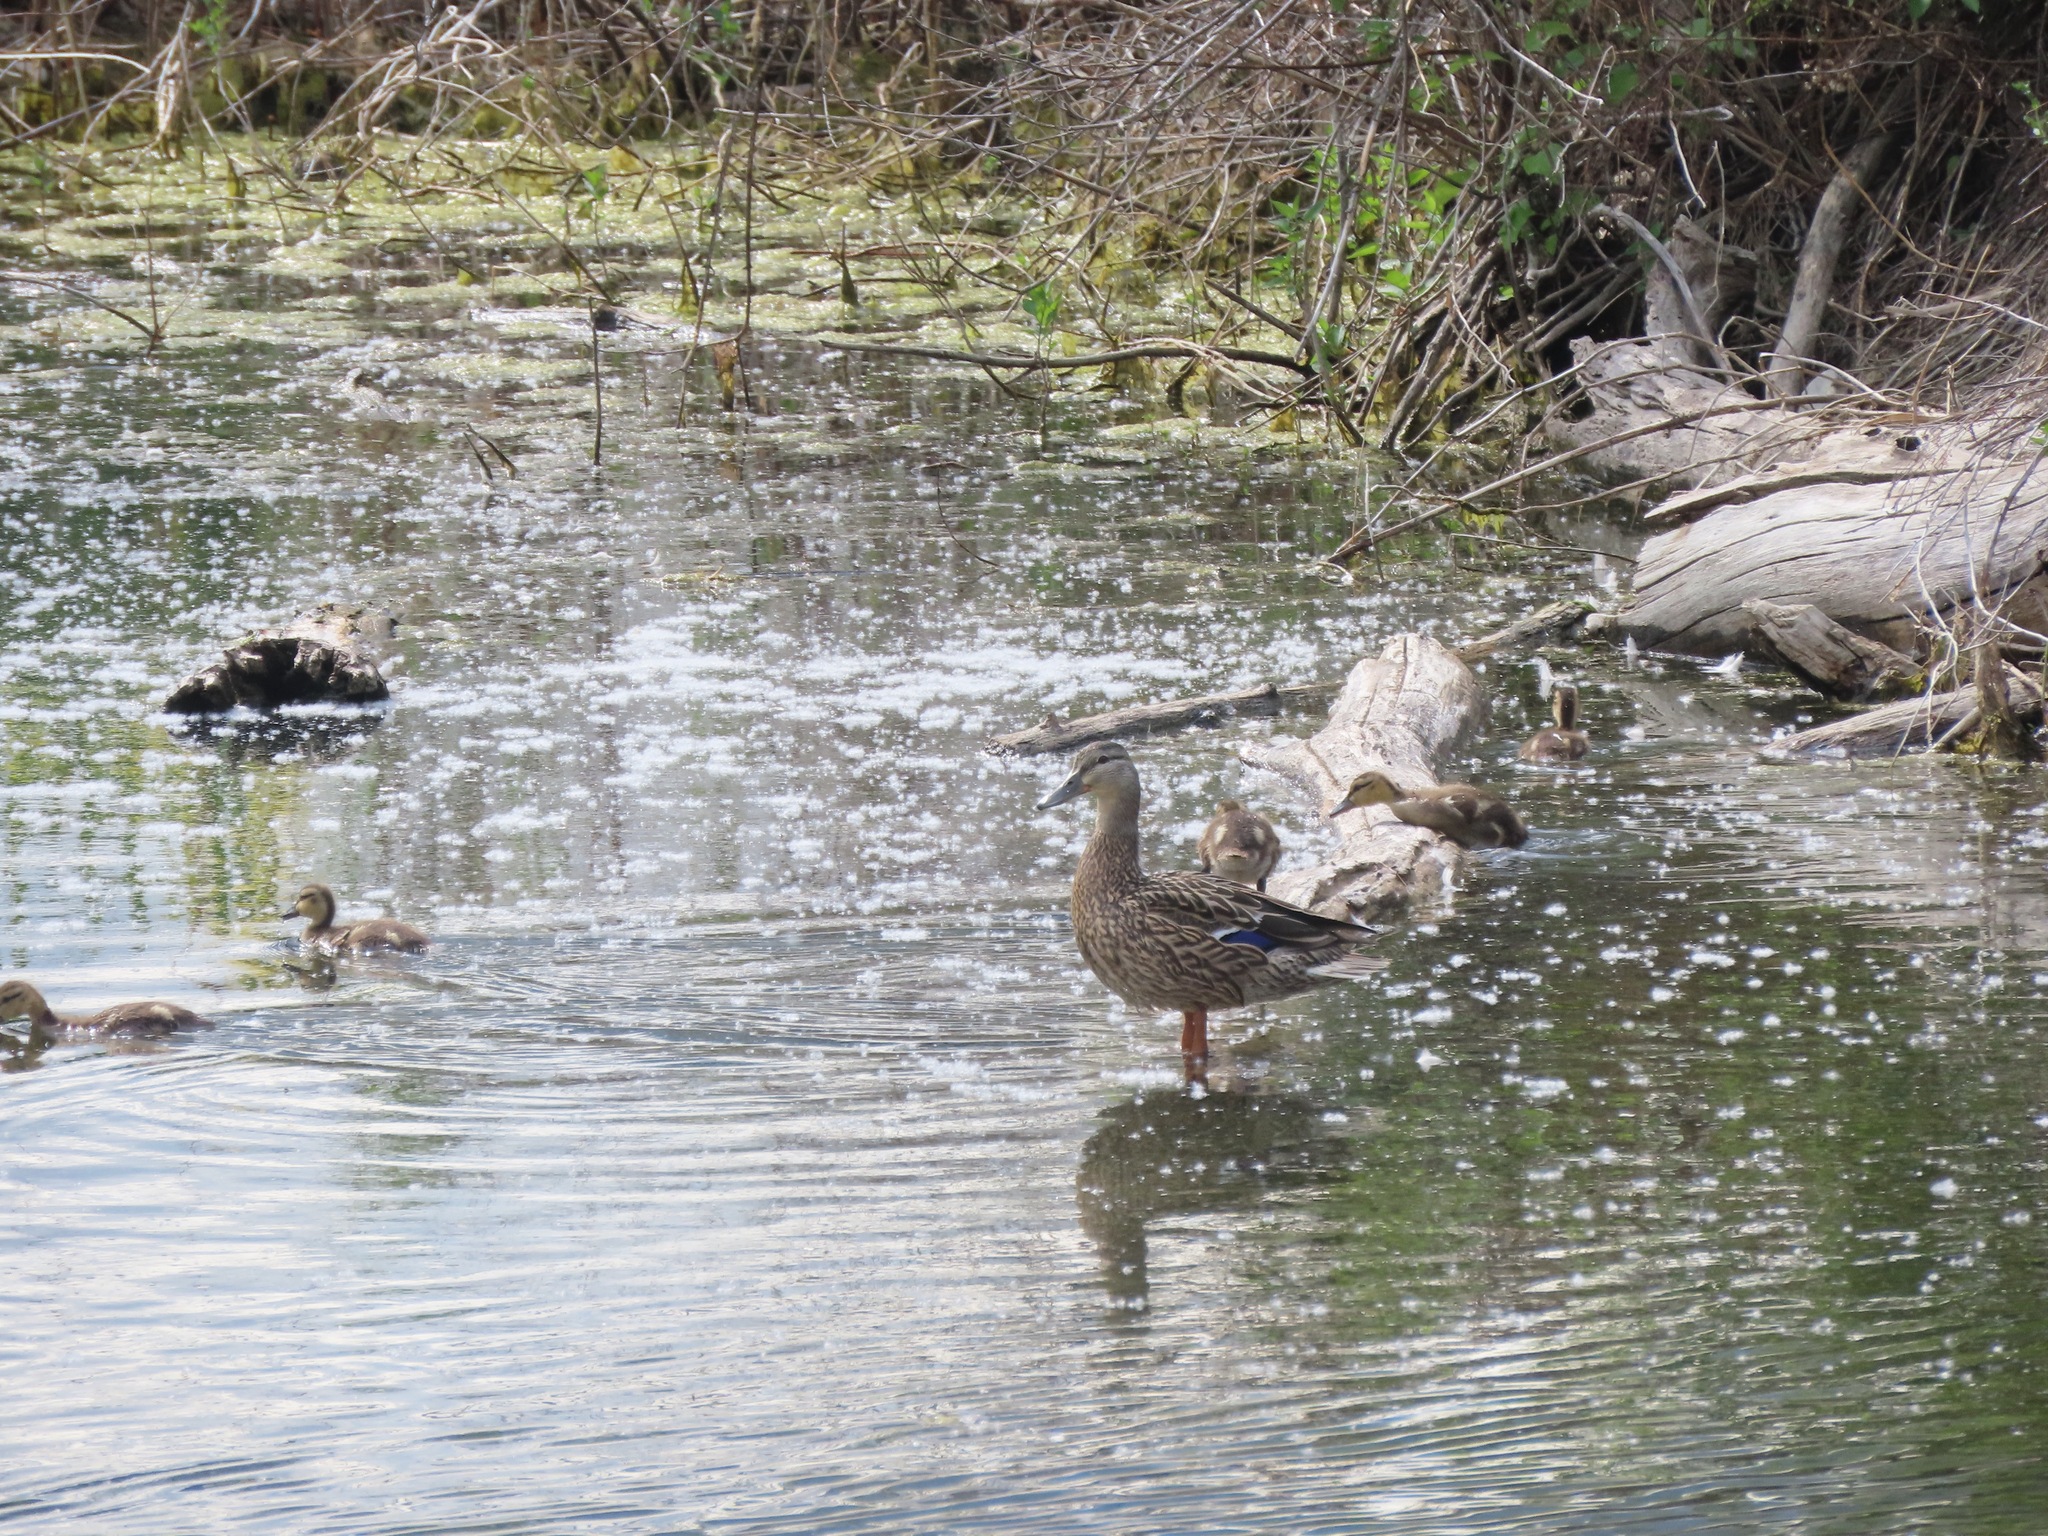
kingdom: Animalia
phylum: Chordata
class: Aves
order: Anseriformes
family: Anatidae
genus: Anas
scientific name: Anas platyrhynchos
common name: Mallard
